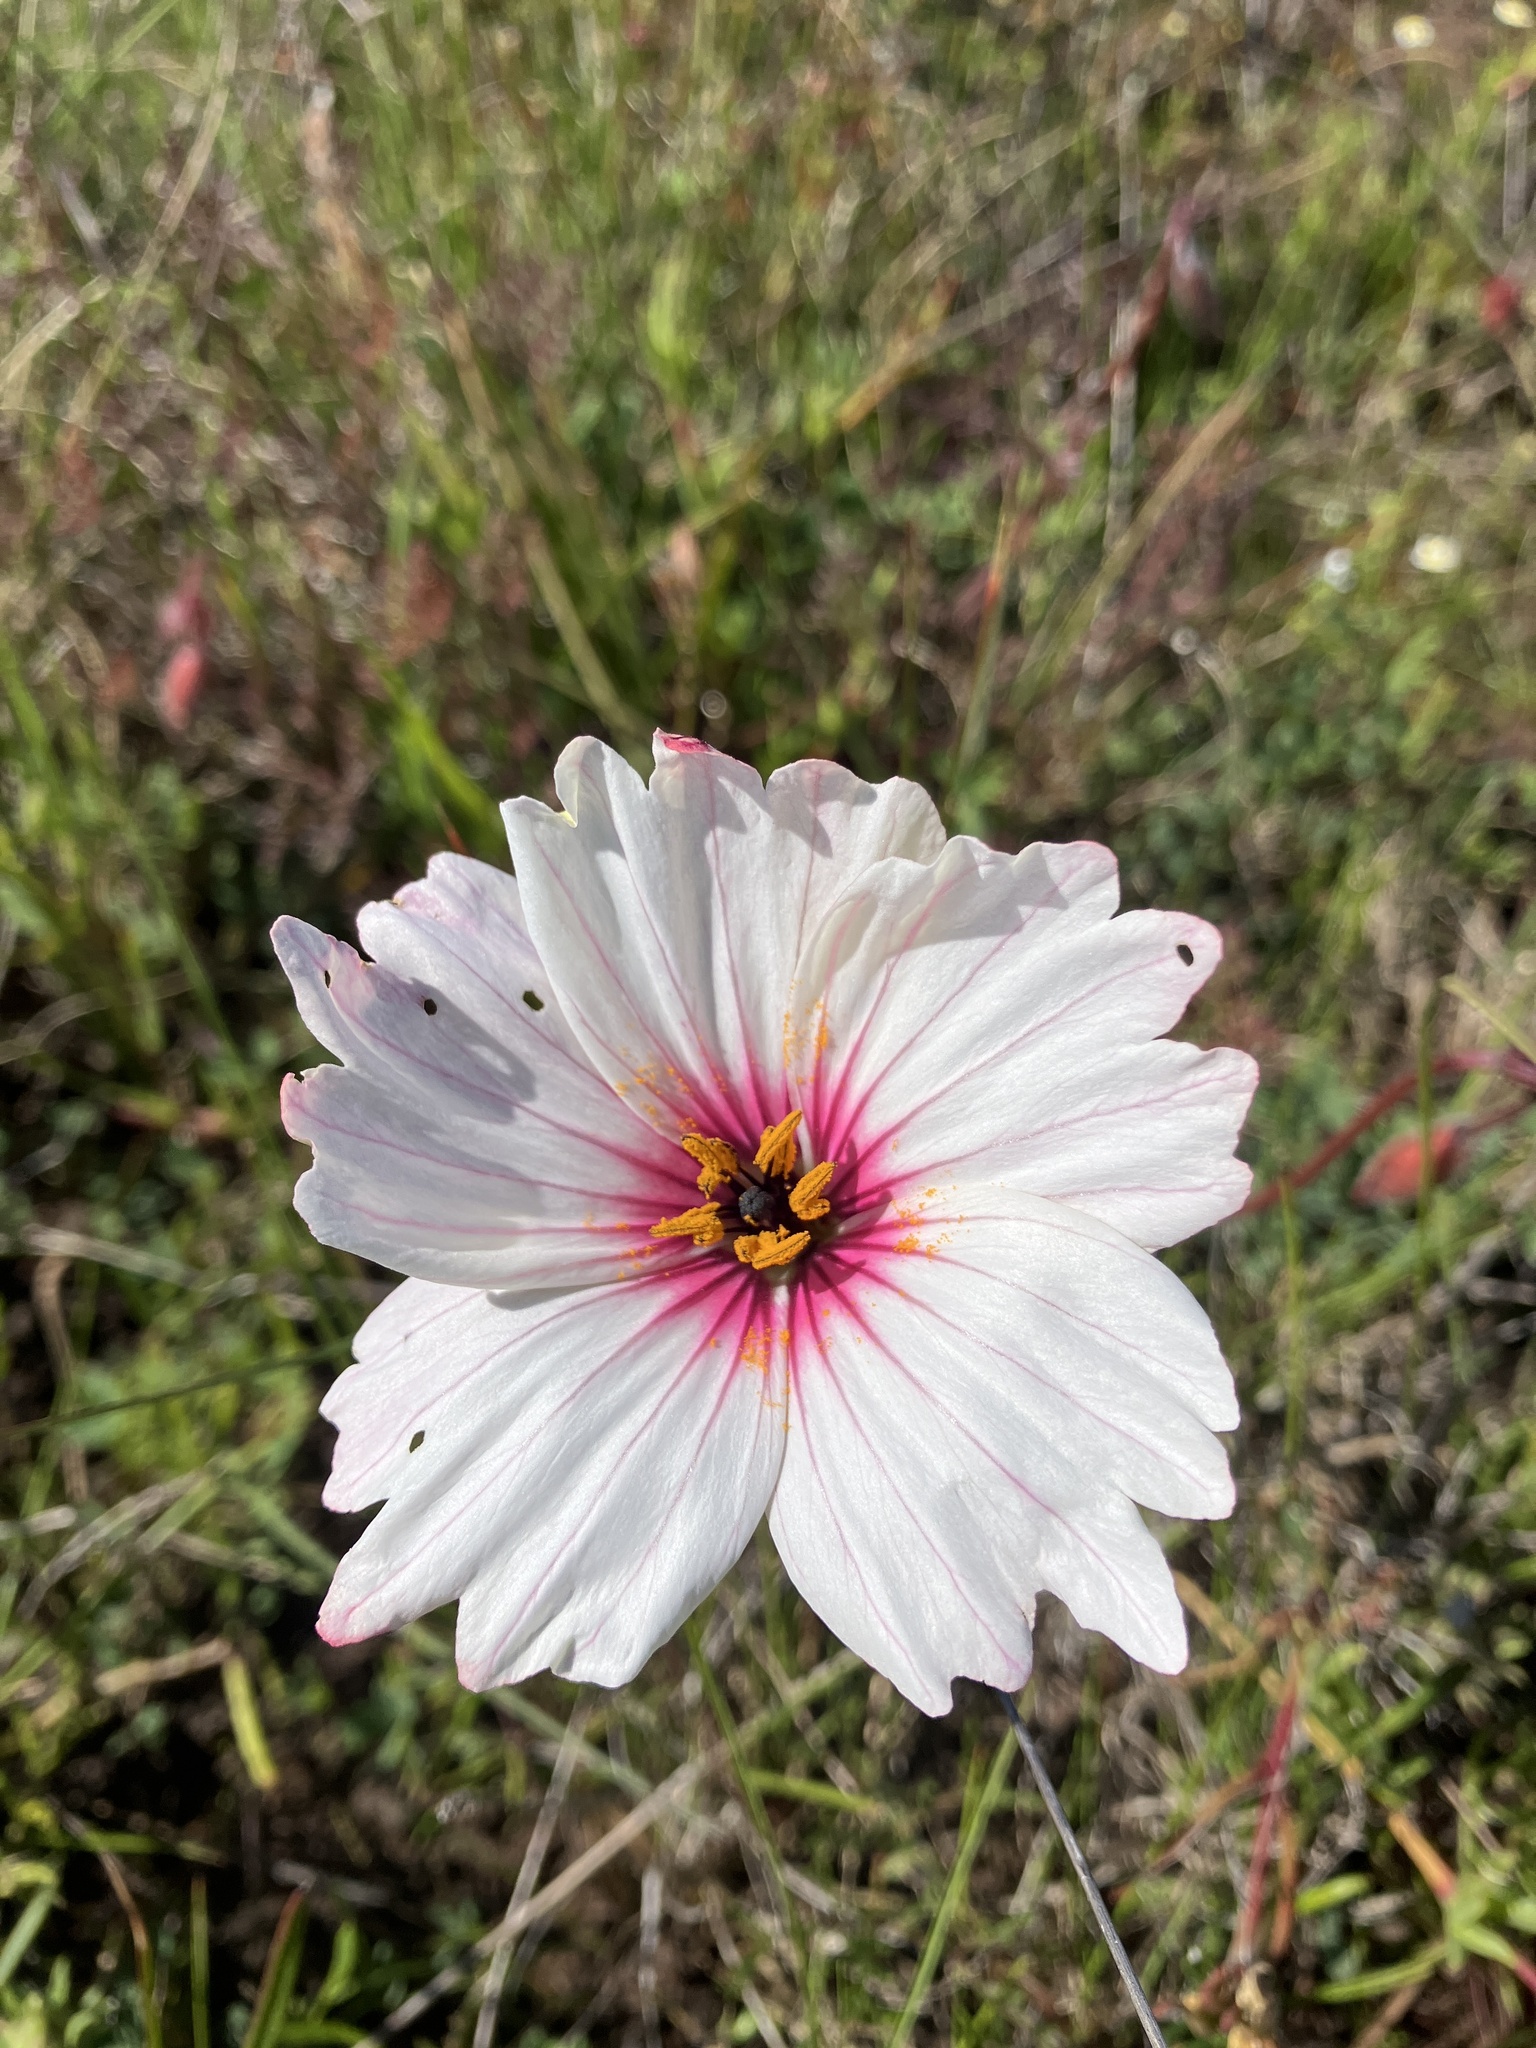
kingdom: Plantae
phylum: Tracheophyta
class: Magnoliopsida
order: Geraniales
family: Geraniaceae
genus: Monsonia
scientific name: Monsonia speciosa
